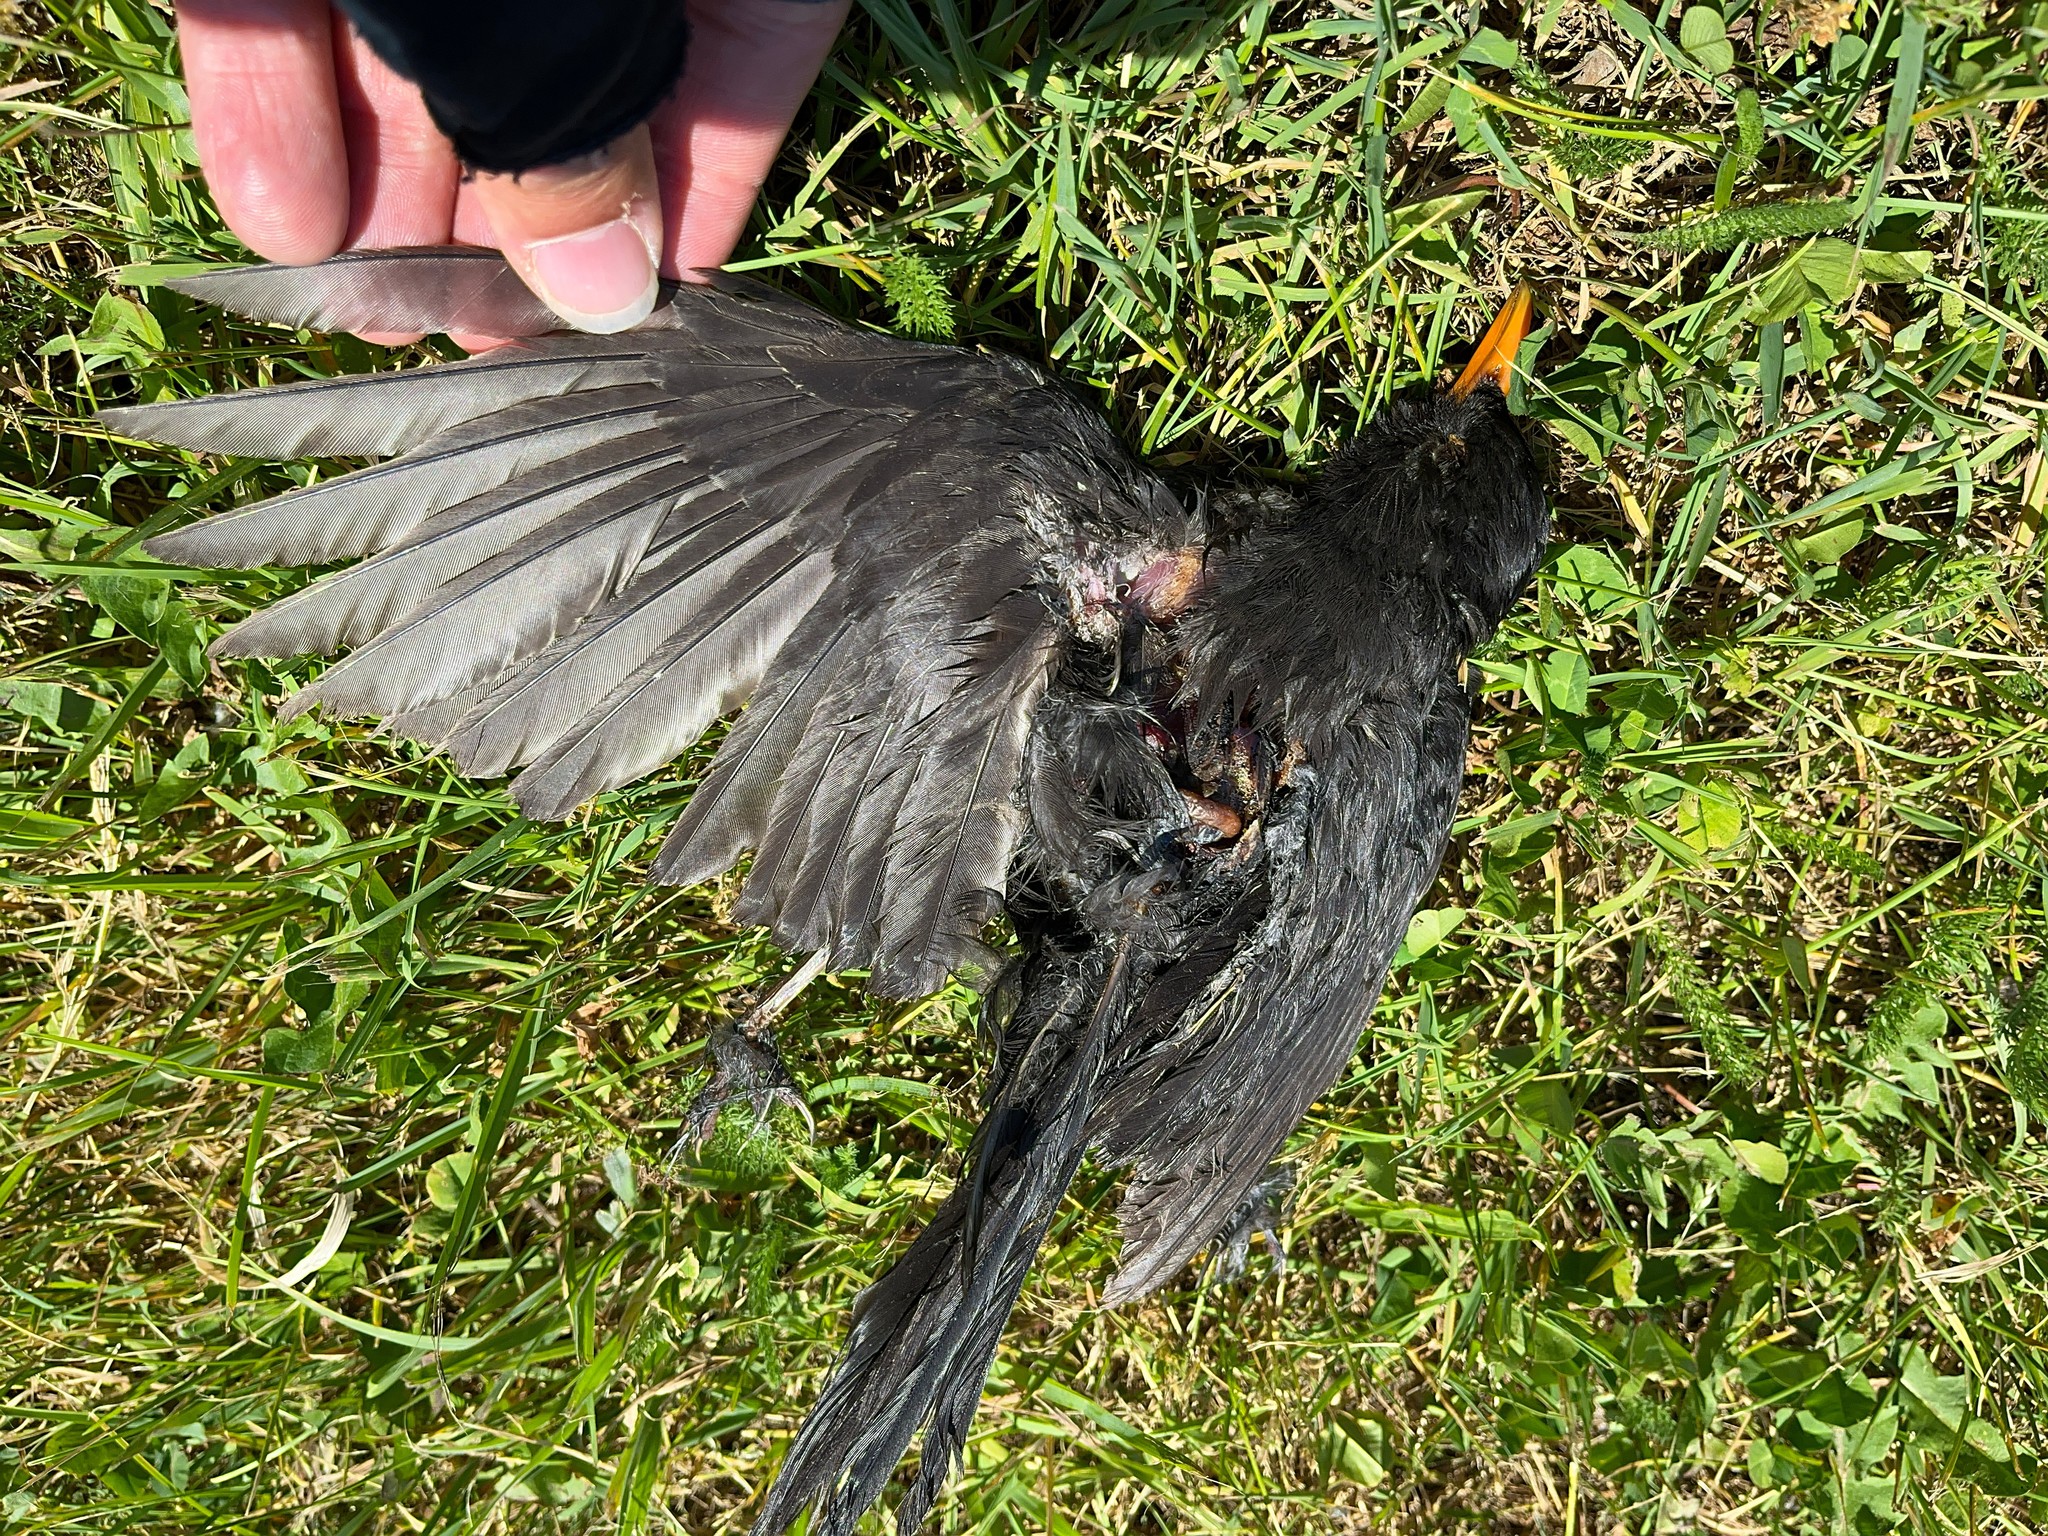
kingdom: Animalia
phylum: Chordata
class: Aves
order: Passeriformes
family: Turdidae
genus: Turdus
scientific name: Turdus merula
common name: Common blackbird
